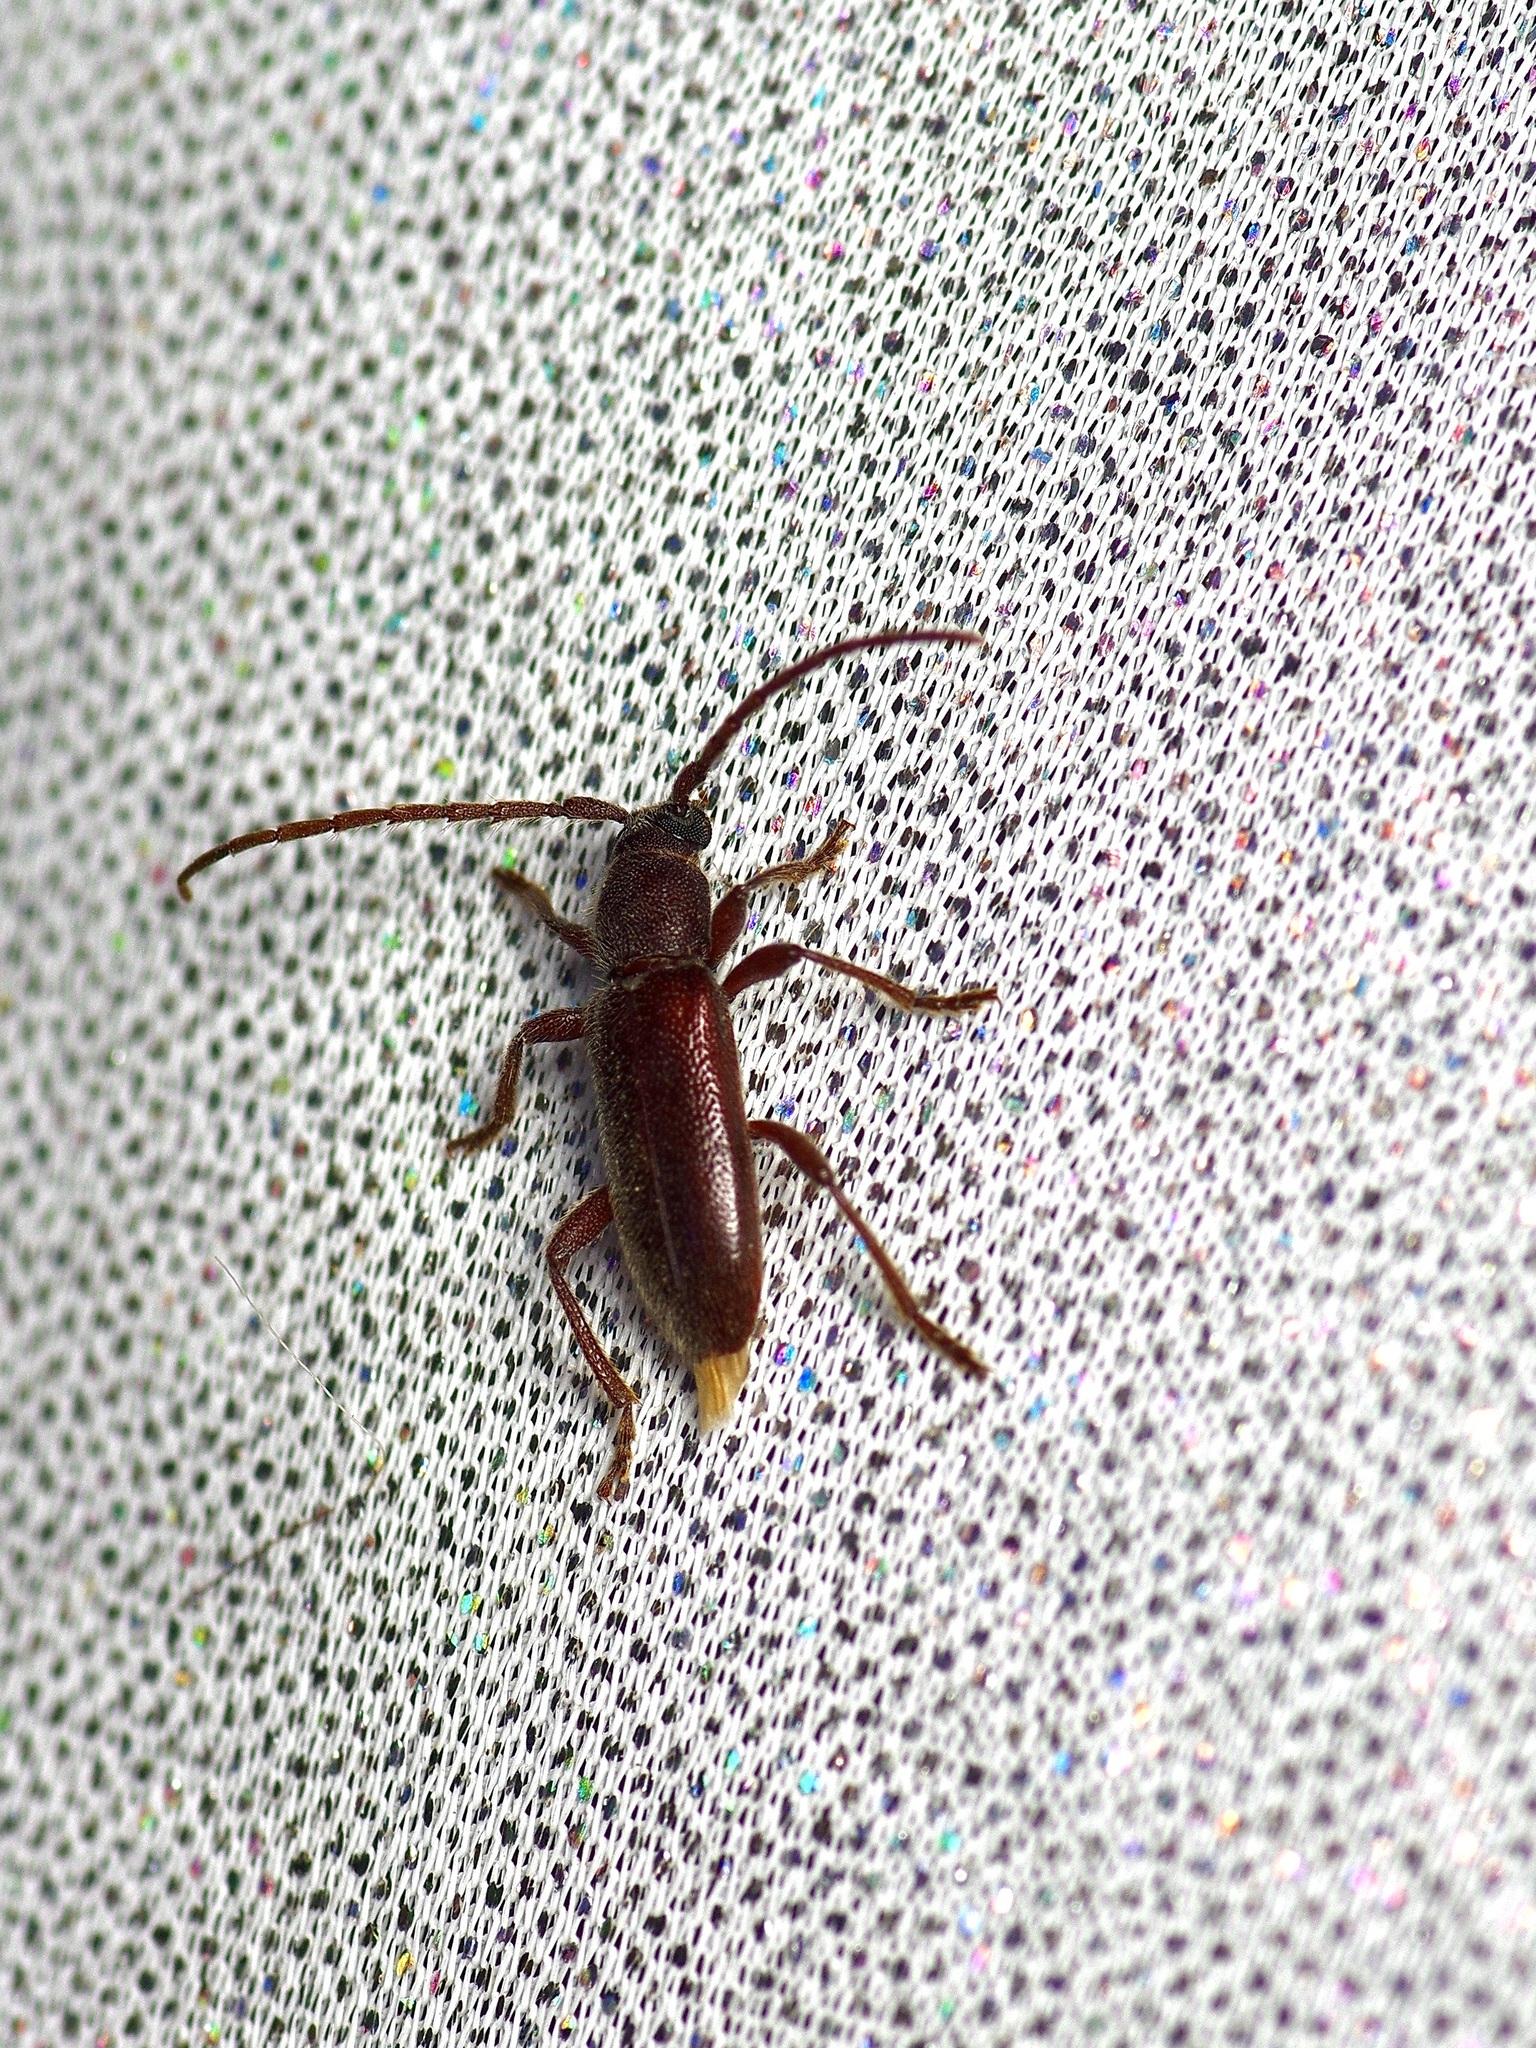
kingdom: Animalia
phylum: Arthropoda
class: Insecta
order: Coleoptera
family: Cerambycidae
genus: Anelaphus
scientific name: Anelaphus moestus
